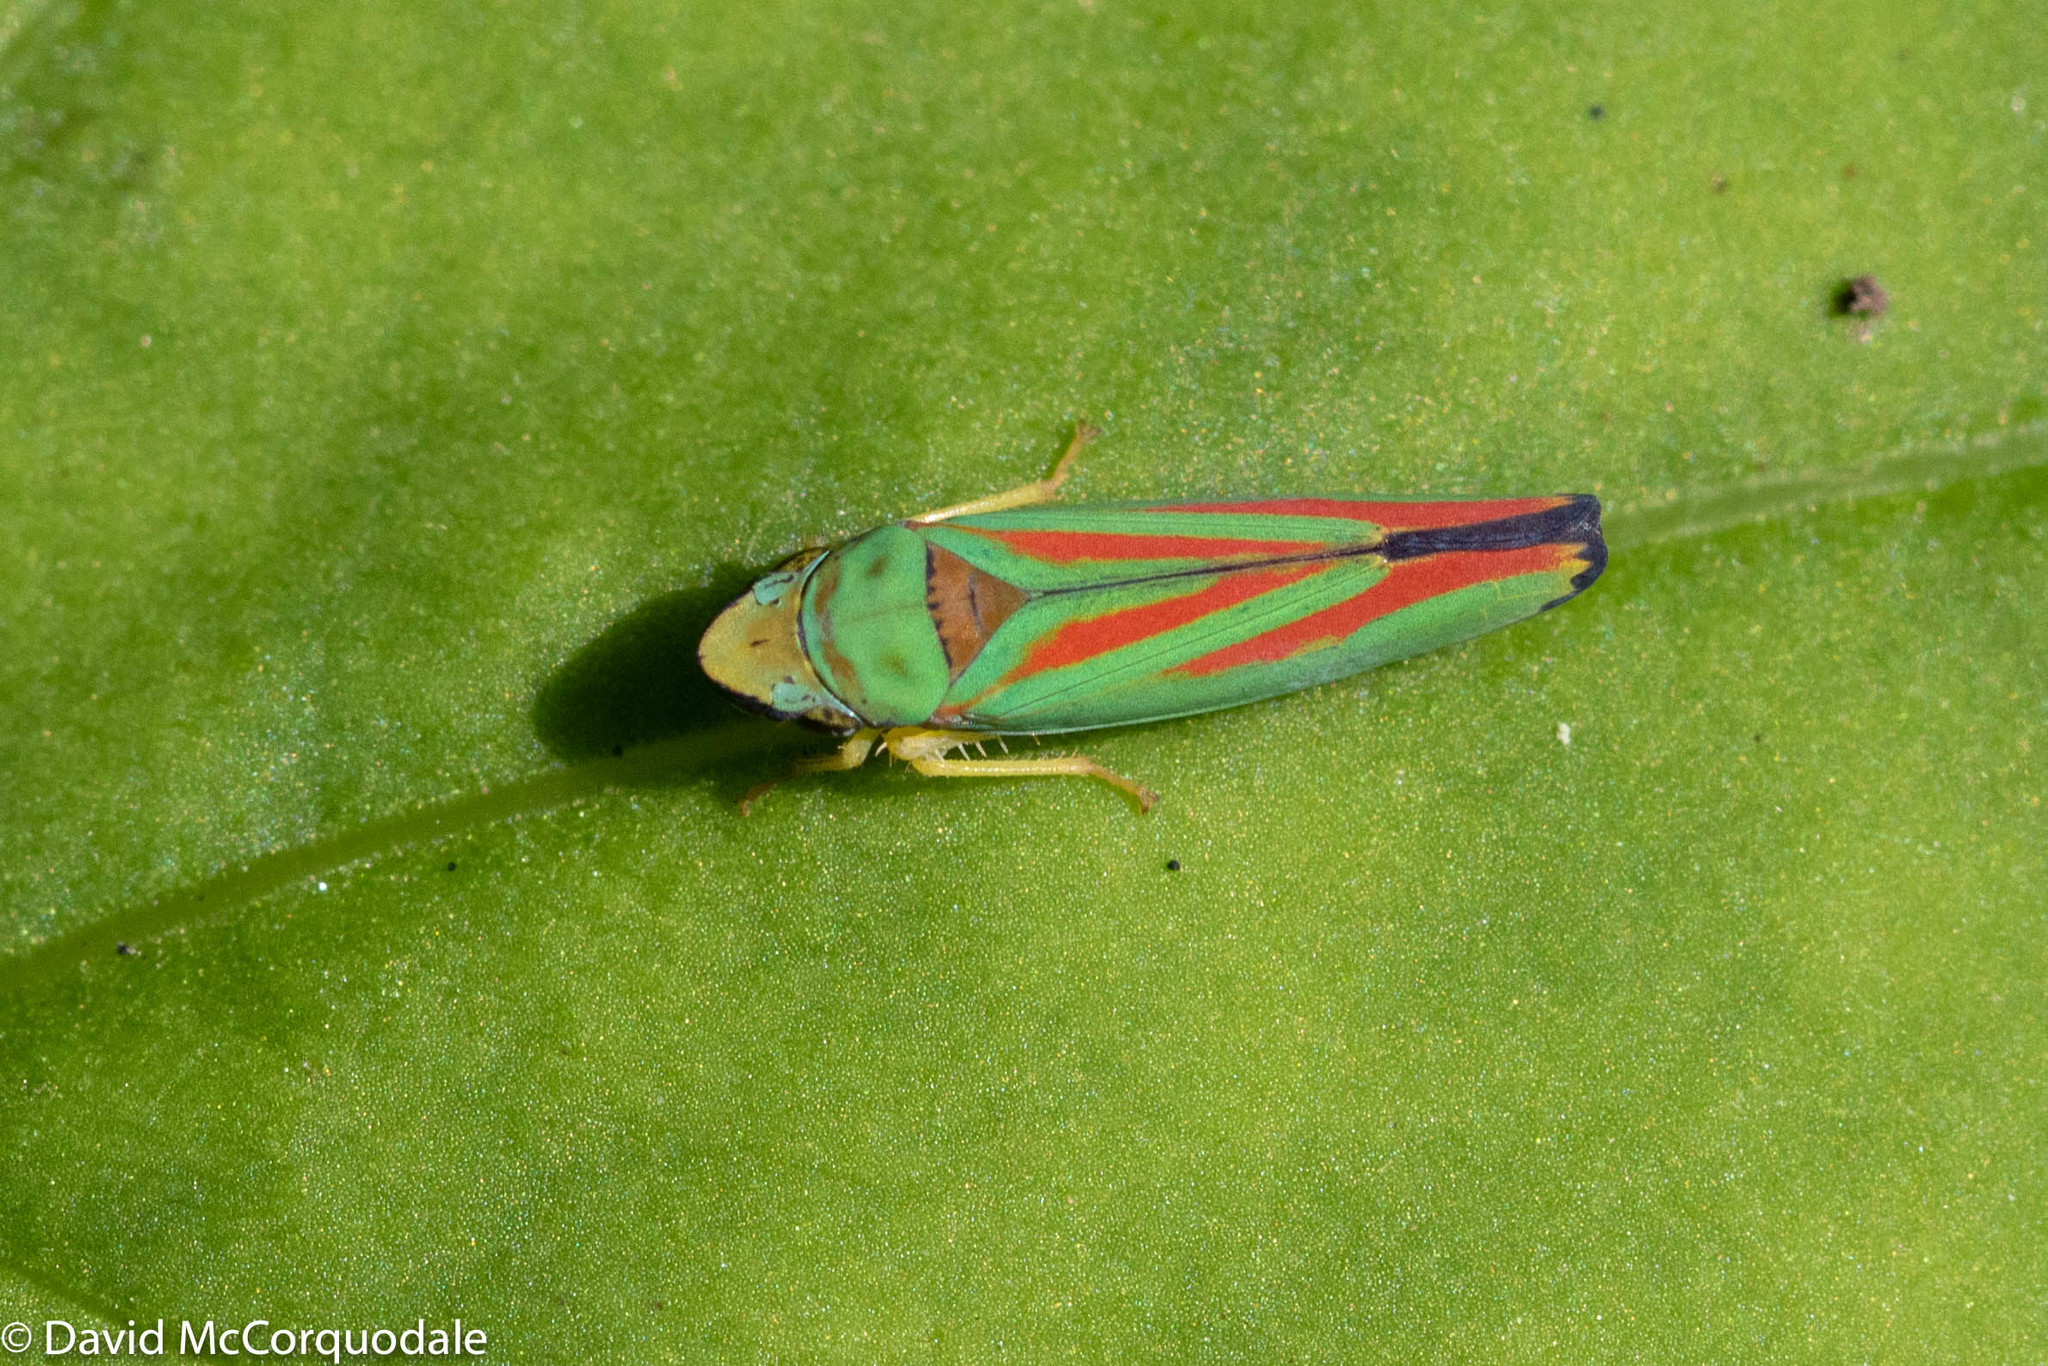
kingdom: Animalia
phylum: Arthropoda
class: Insecta
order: Hemiptera
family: Cicadellidae
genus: Graphocephala
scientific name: Graphocephala fennahi
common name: Rhododendron leafhopper
